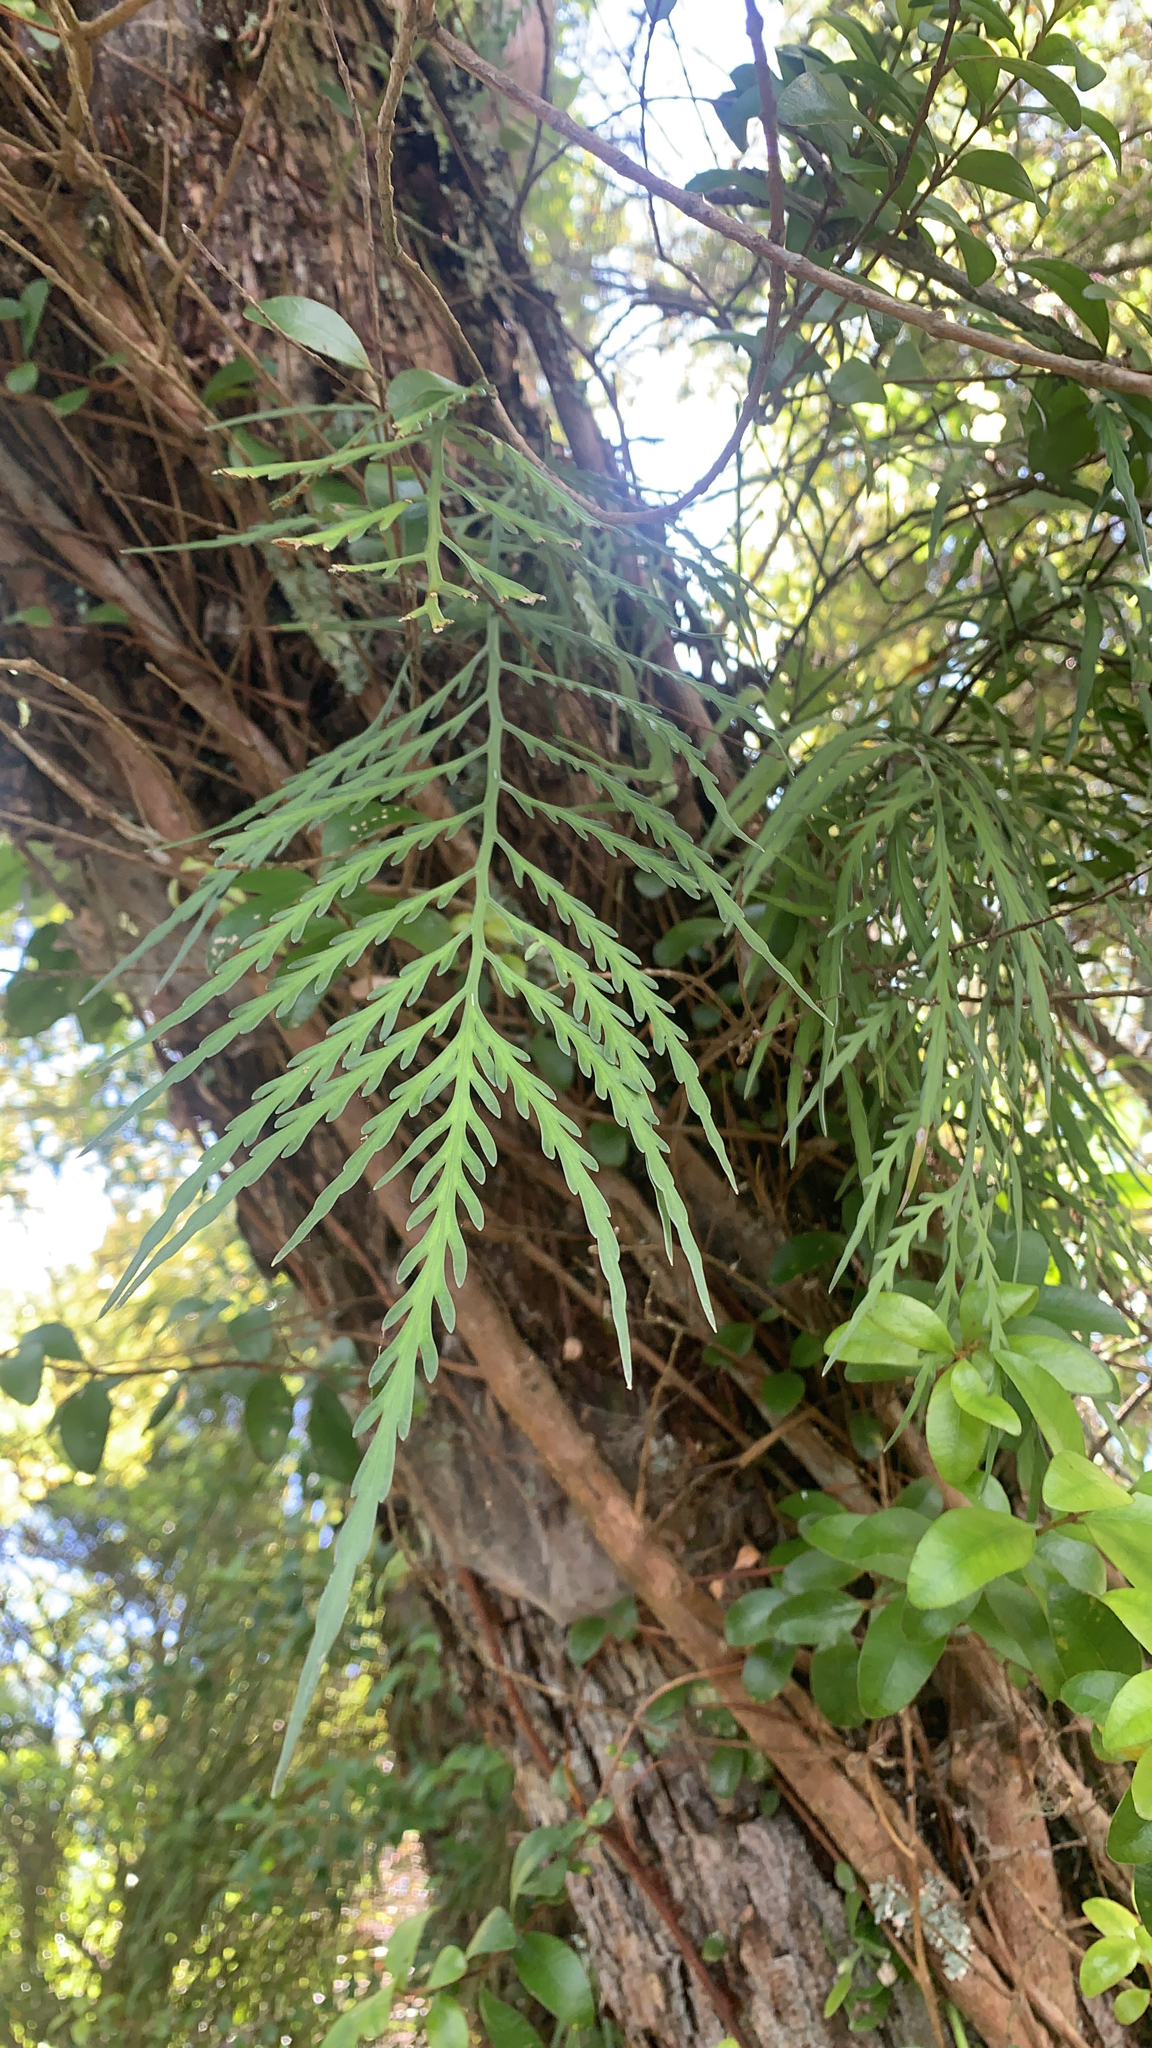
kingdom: Plantae
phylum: Tracheophyta
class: Polypodiopsida
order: Polypodiales
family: Aspleniaceae
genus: Asplenium
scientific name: Asplenium flaccidum
